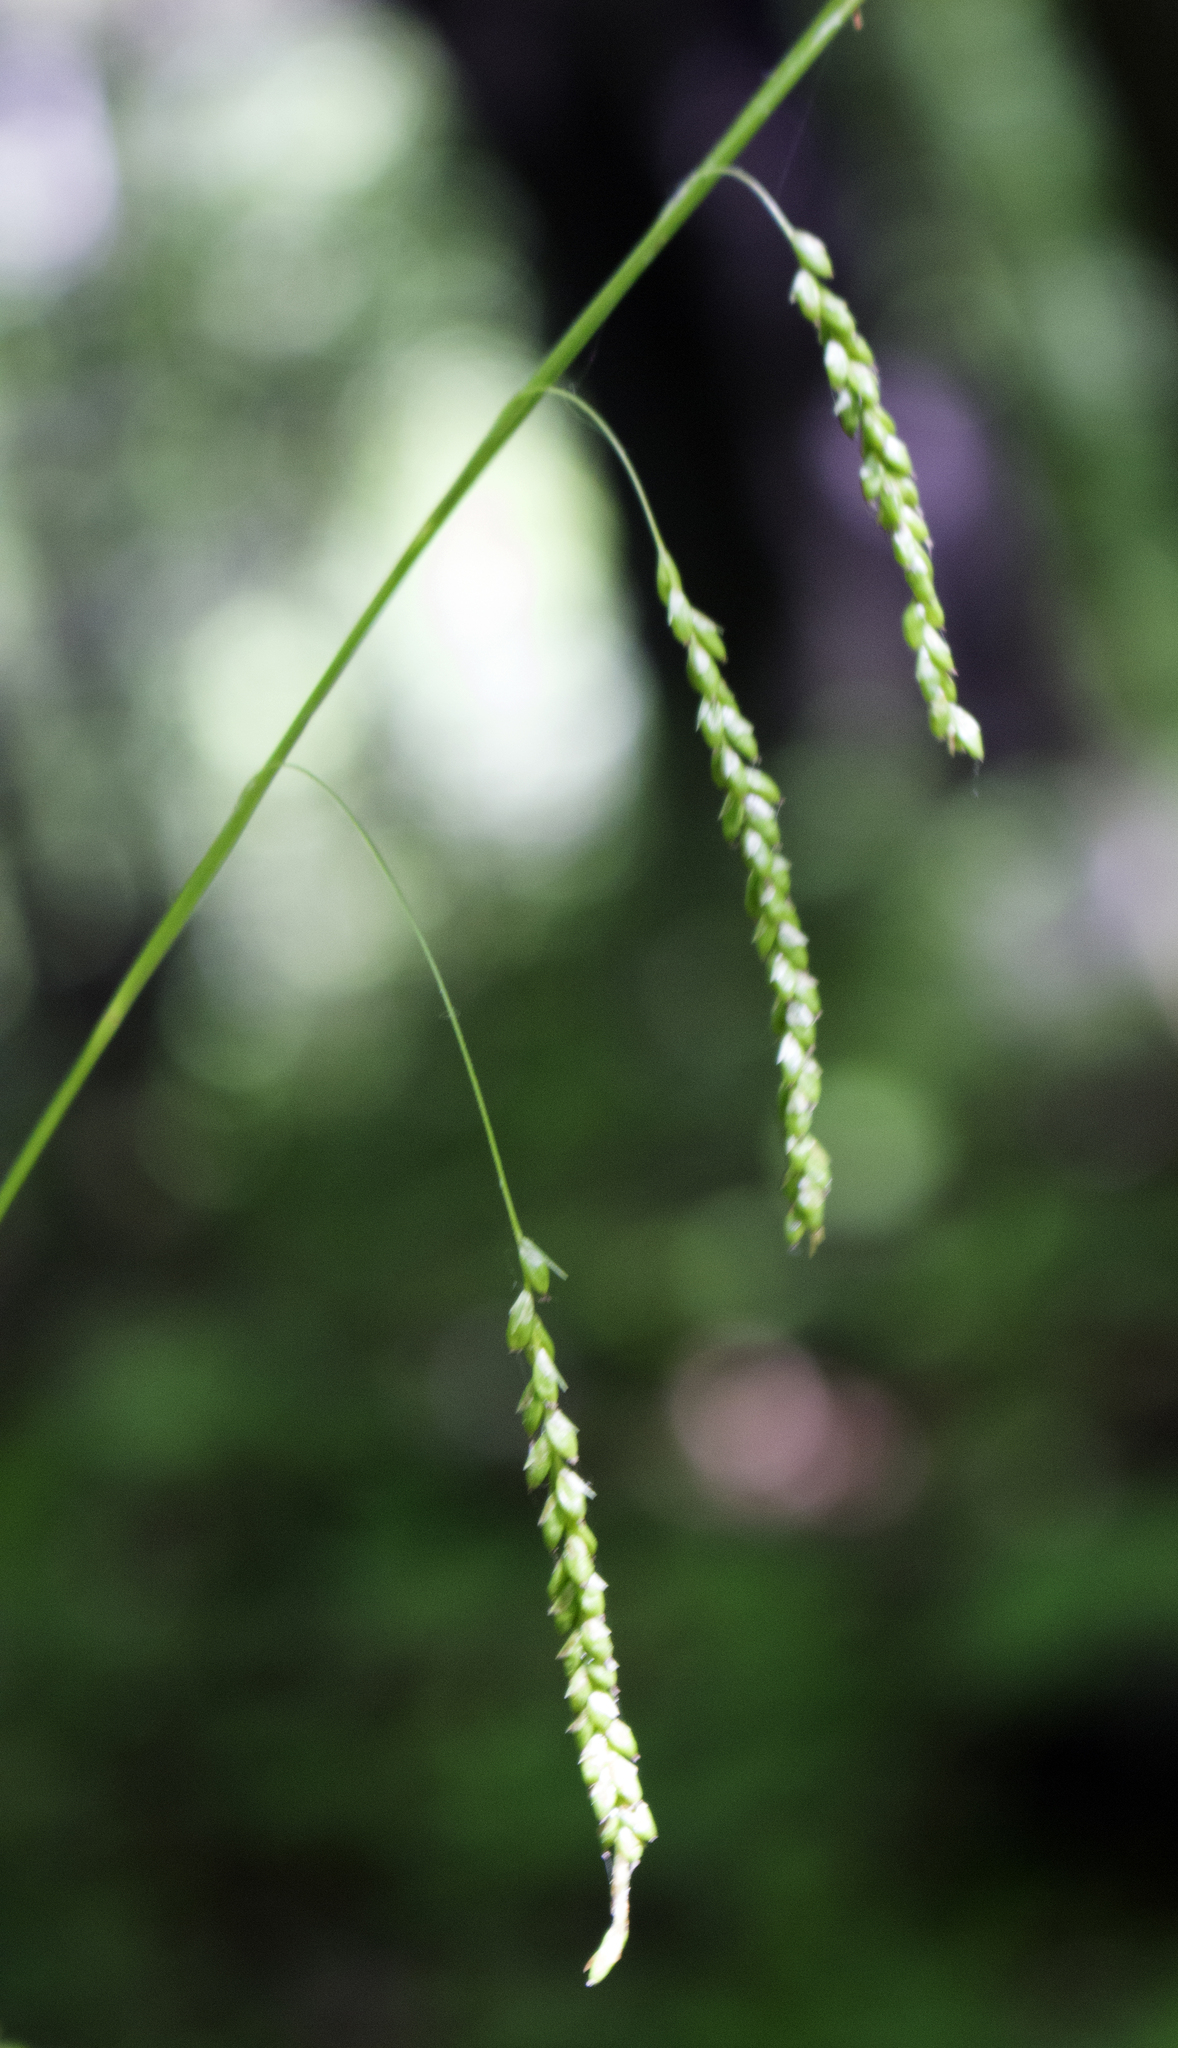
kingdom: Plantae
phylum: Tracheophyta
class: Liliopsida
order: Poales
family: Cyperaceae
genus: Carex
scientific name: Carex gracillima
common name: Graceful sedge
